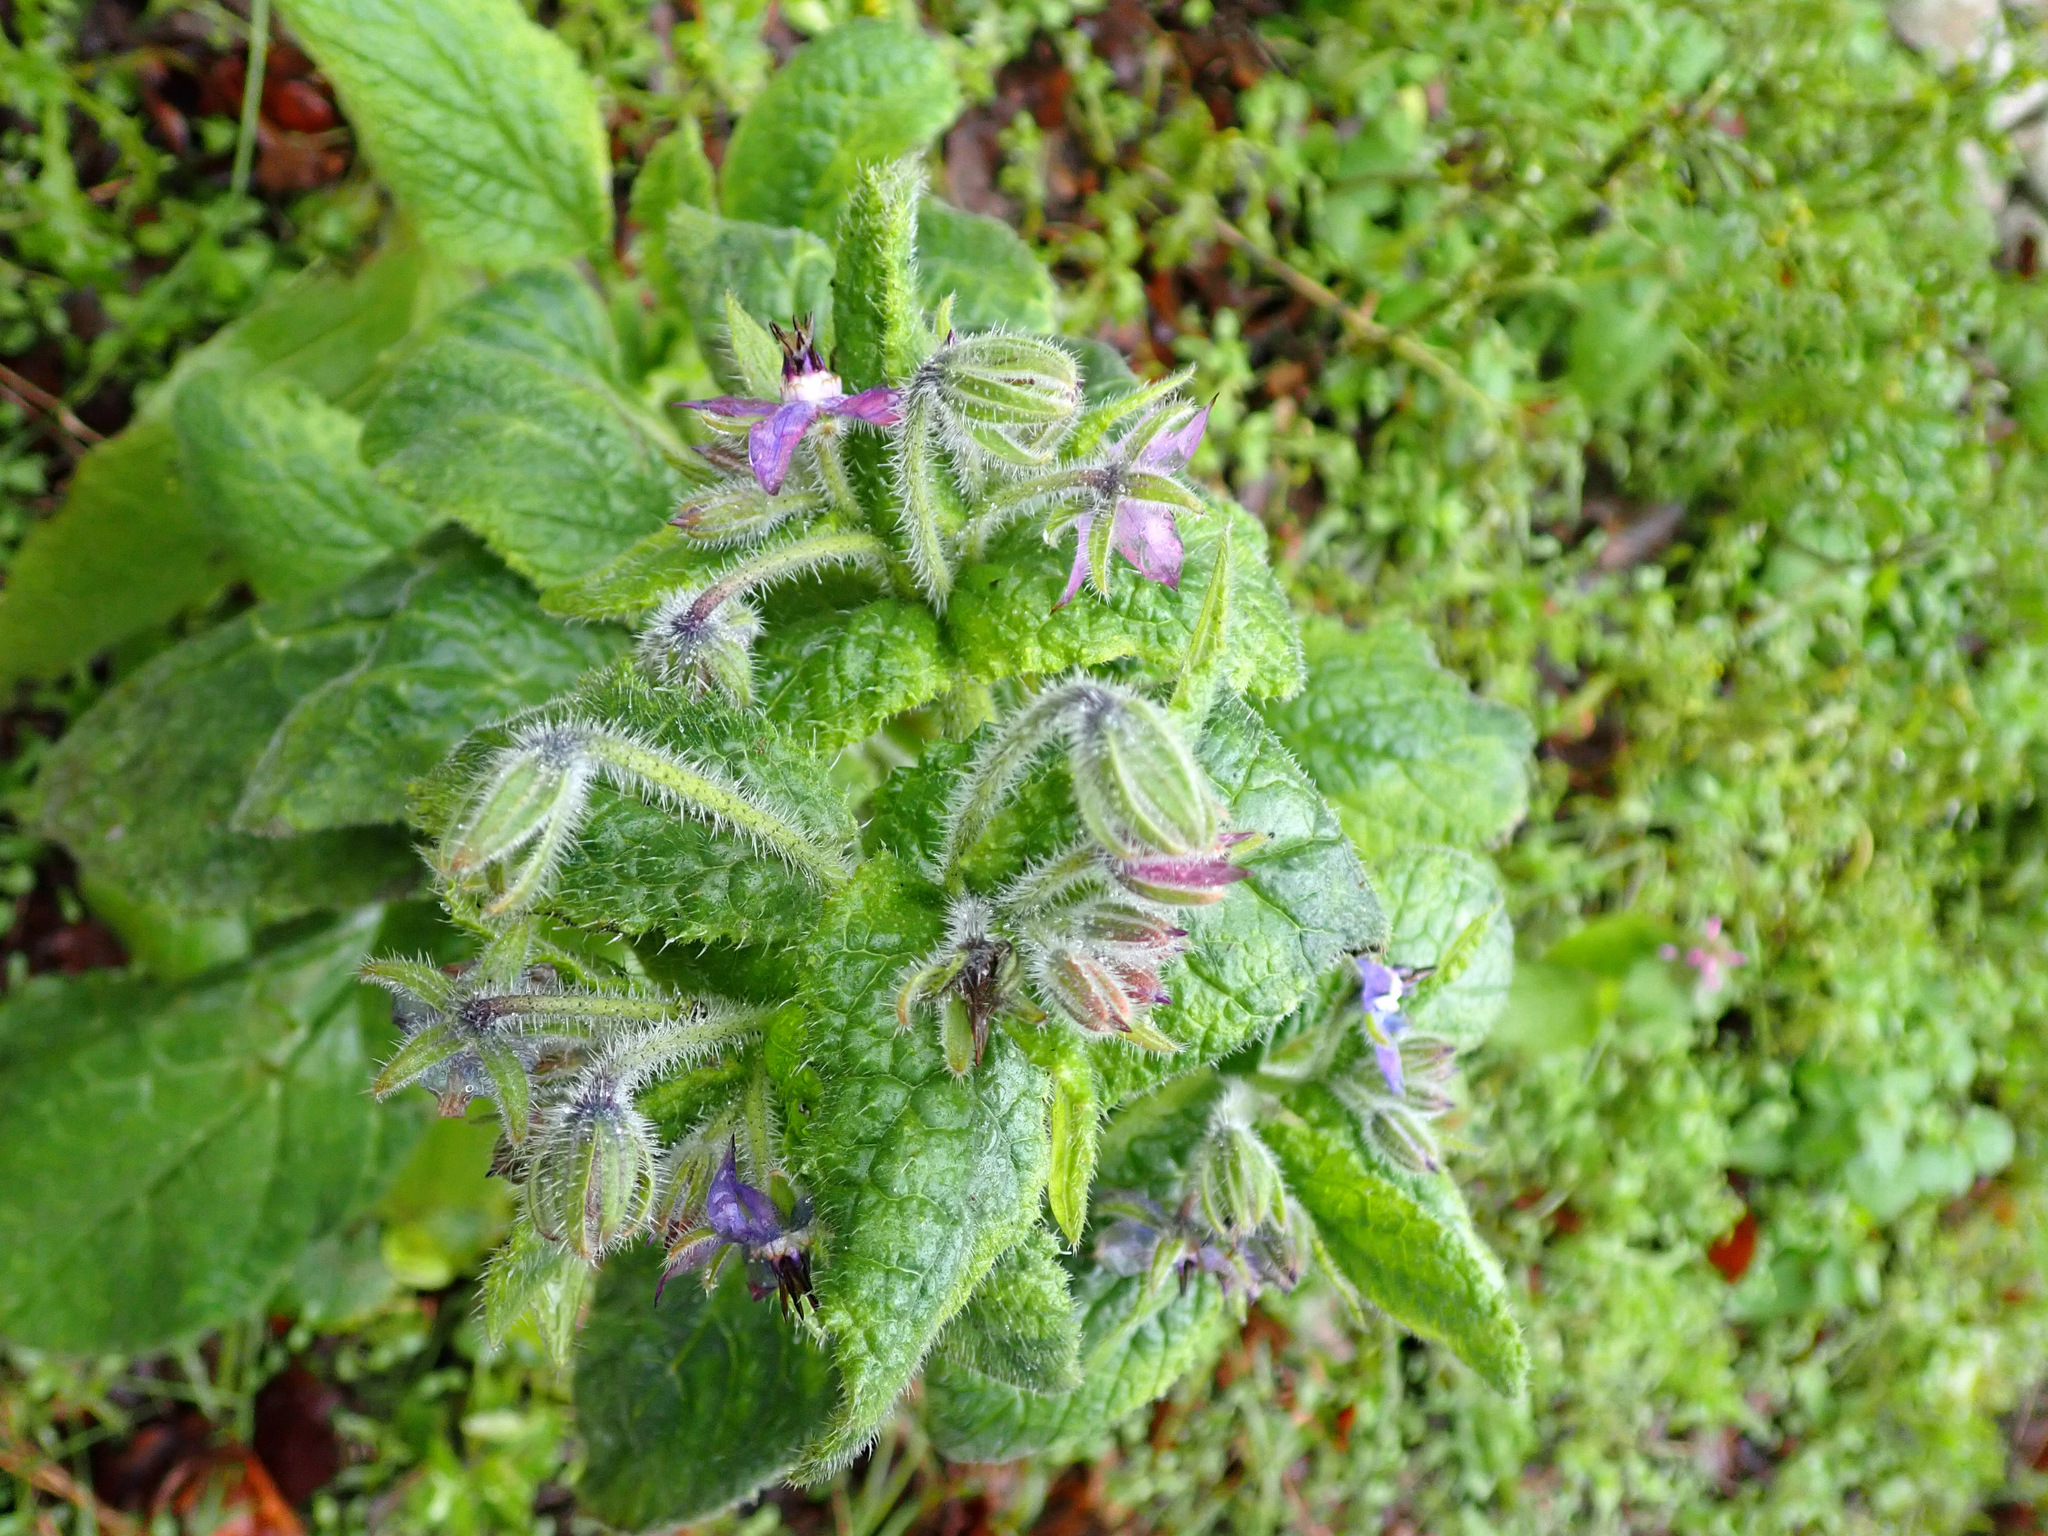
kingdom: Plantae
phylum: Tracheophyta
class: Magnoliopsida
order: Boraginales
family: Boraginaceae
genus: Borago
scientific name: Borago officinalis
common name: Borage
